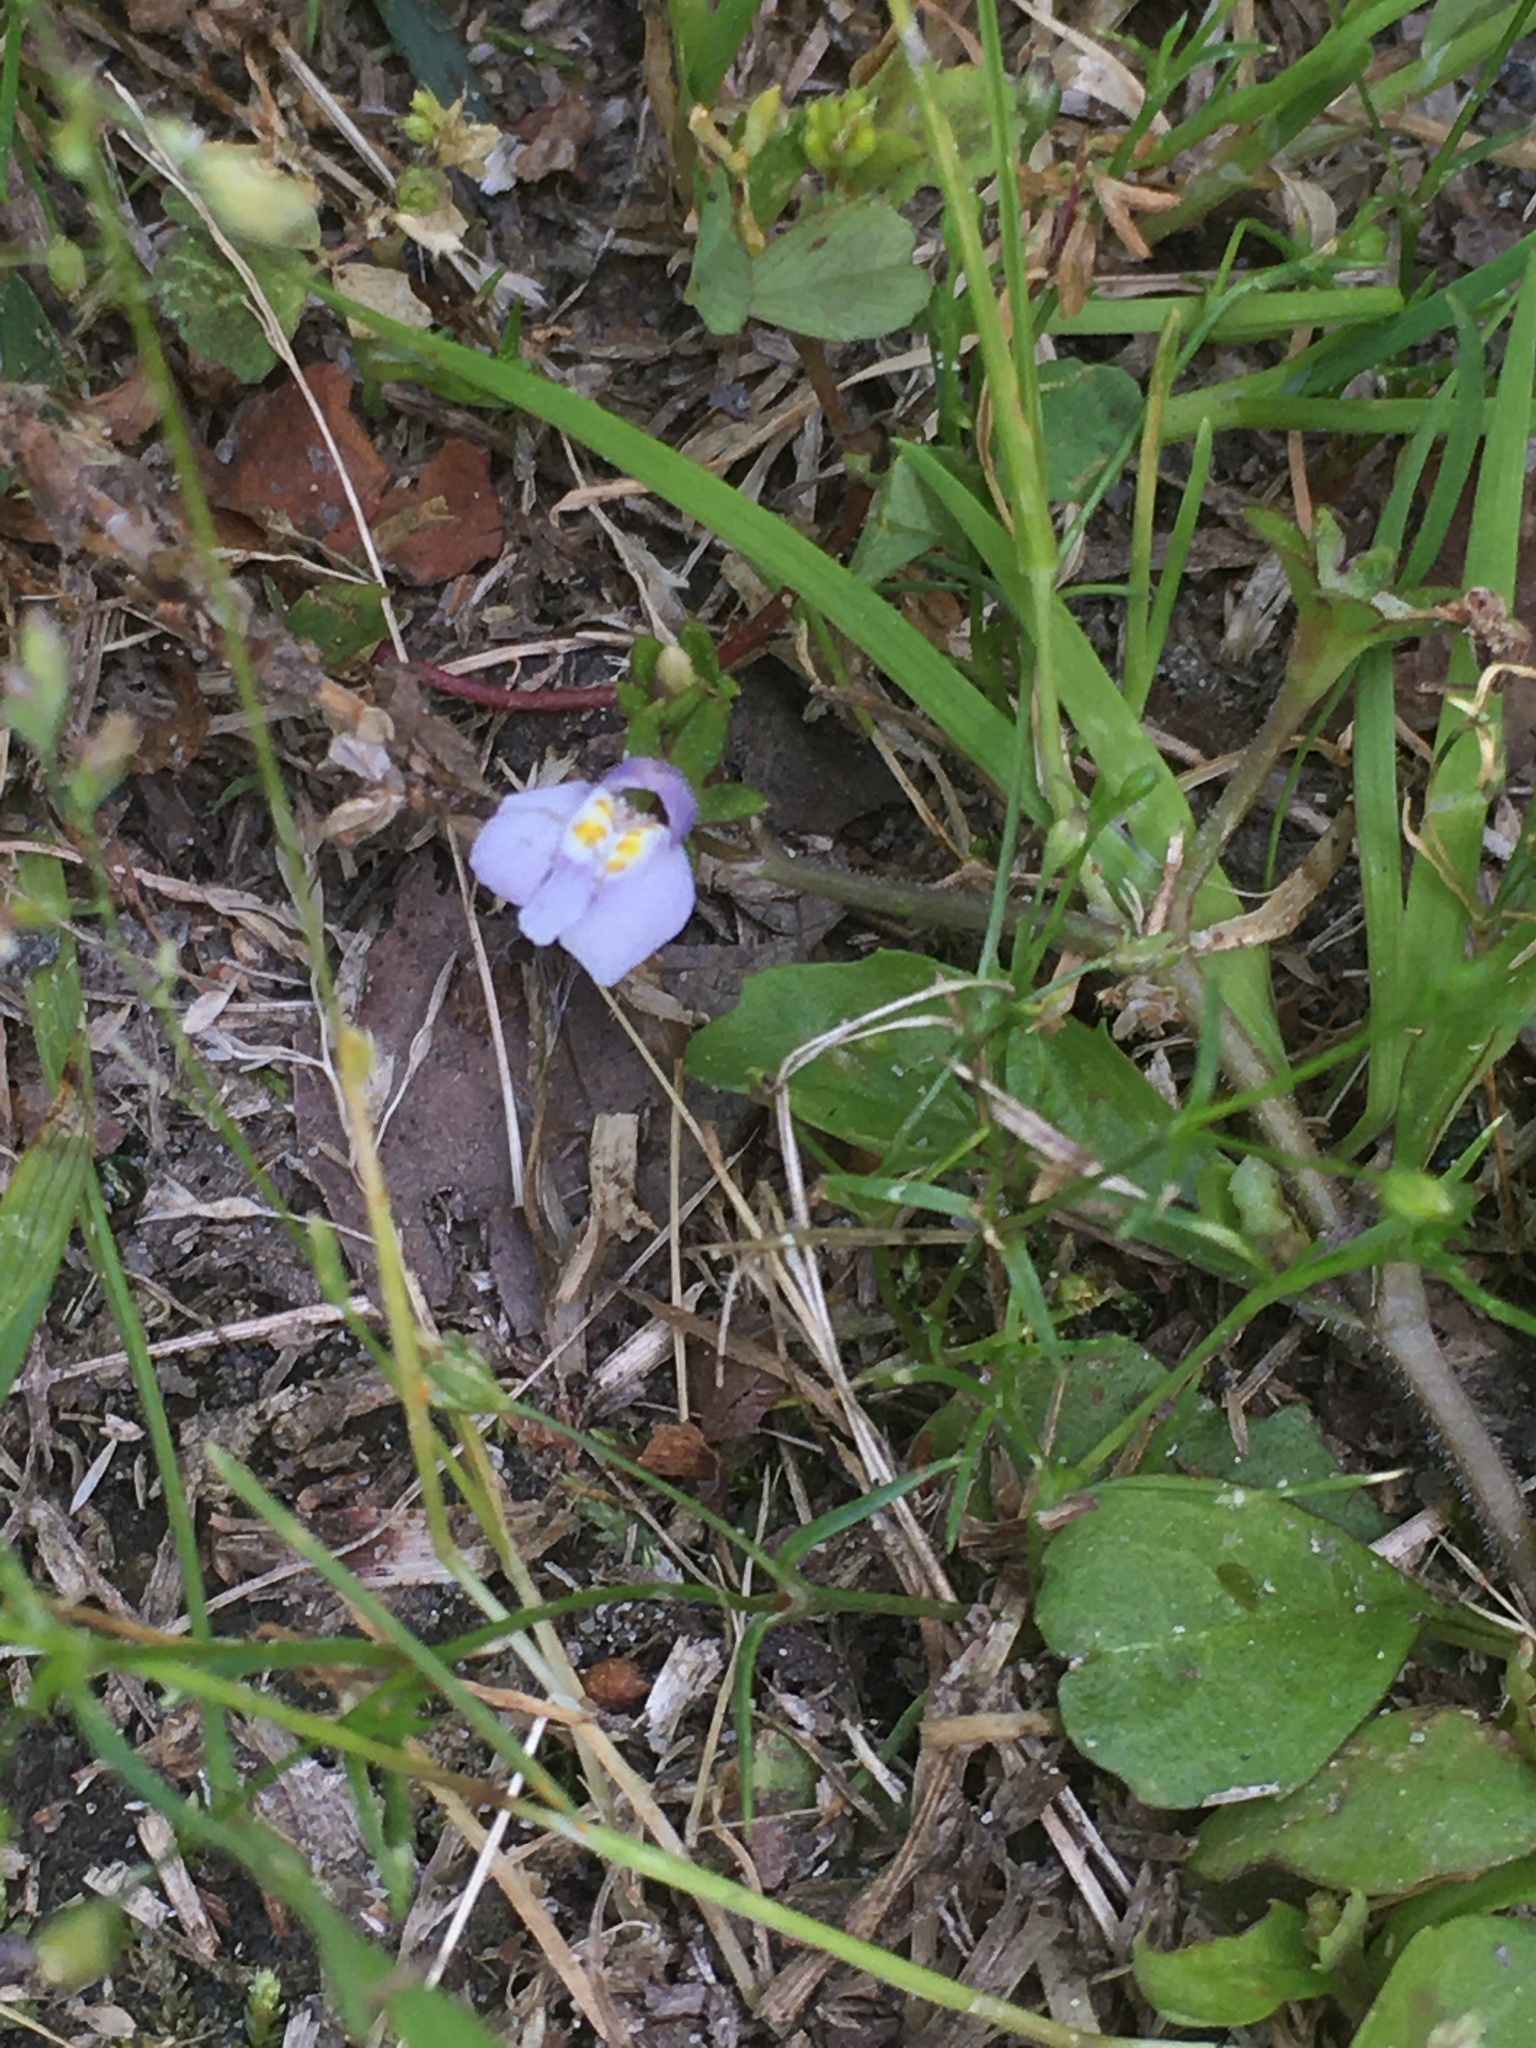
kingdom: Plantae
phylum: Tracheophyta
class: Magnoliopsida
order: Lamiales
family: Mazaceae
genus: Mazus
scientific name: Mazus pumilus
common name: Japanese mazus
